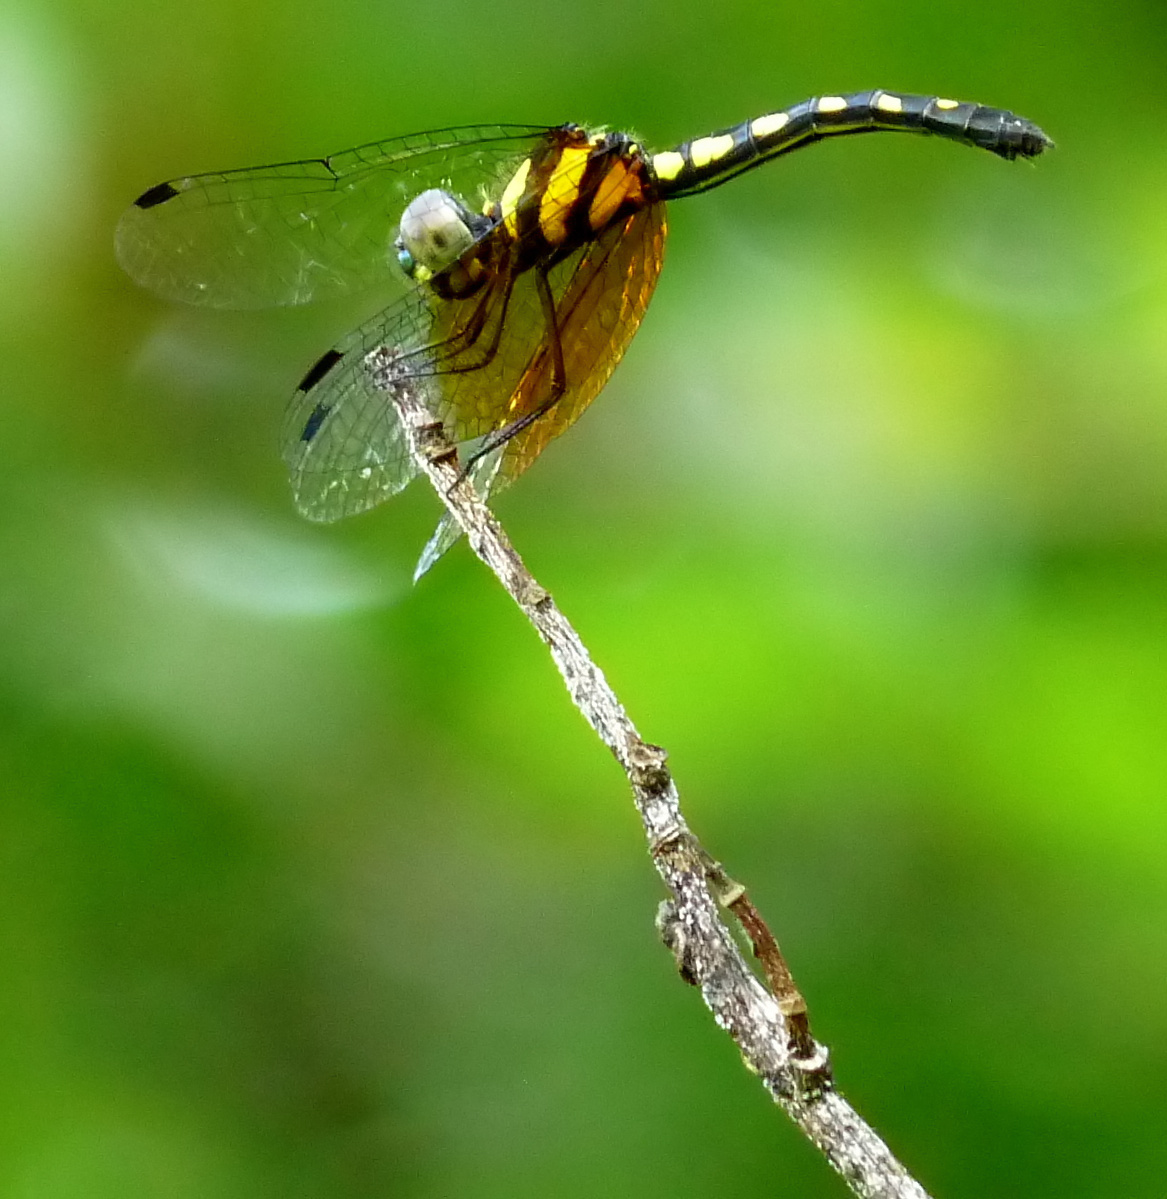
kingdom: Animalia
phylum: Arthropoda
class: Insecta
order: Odonata
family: Libellulidae
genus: Tetrathemis
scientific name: Tetrathemis platyptera
